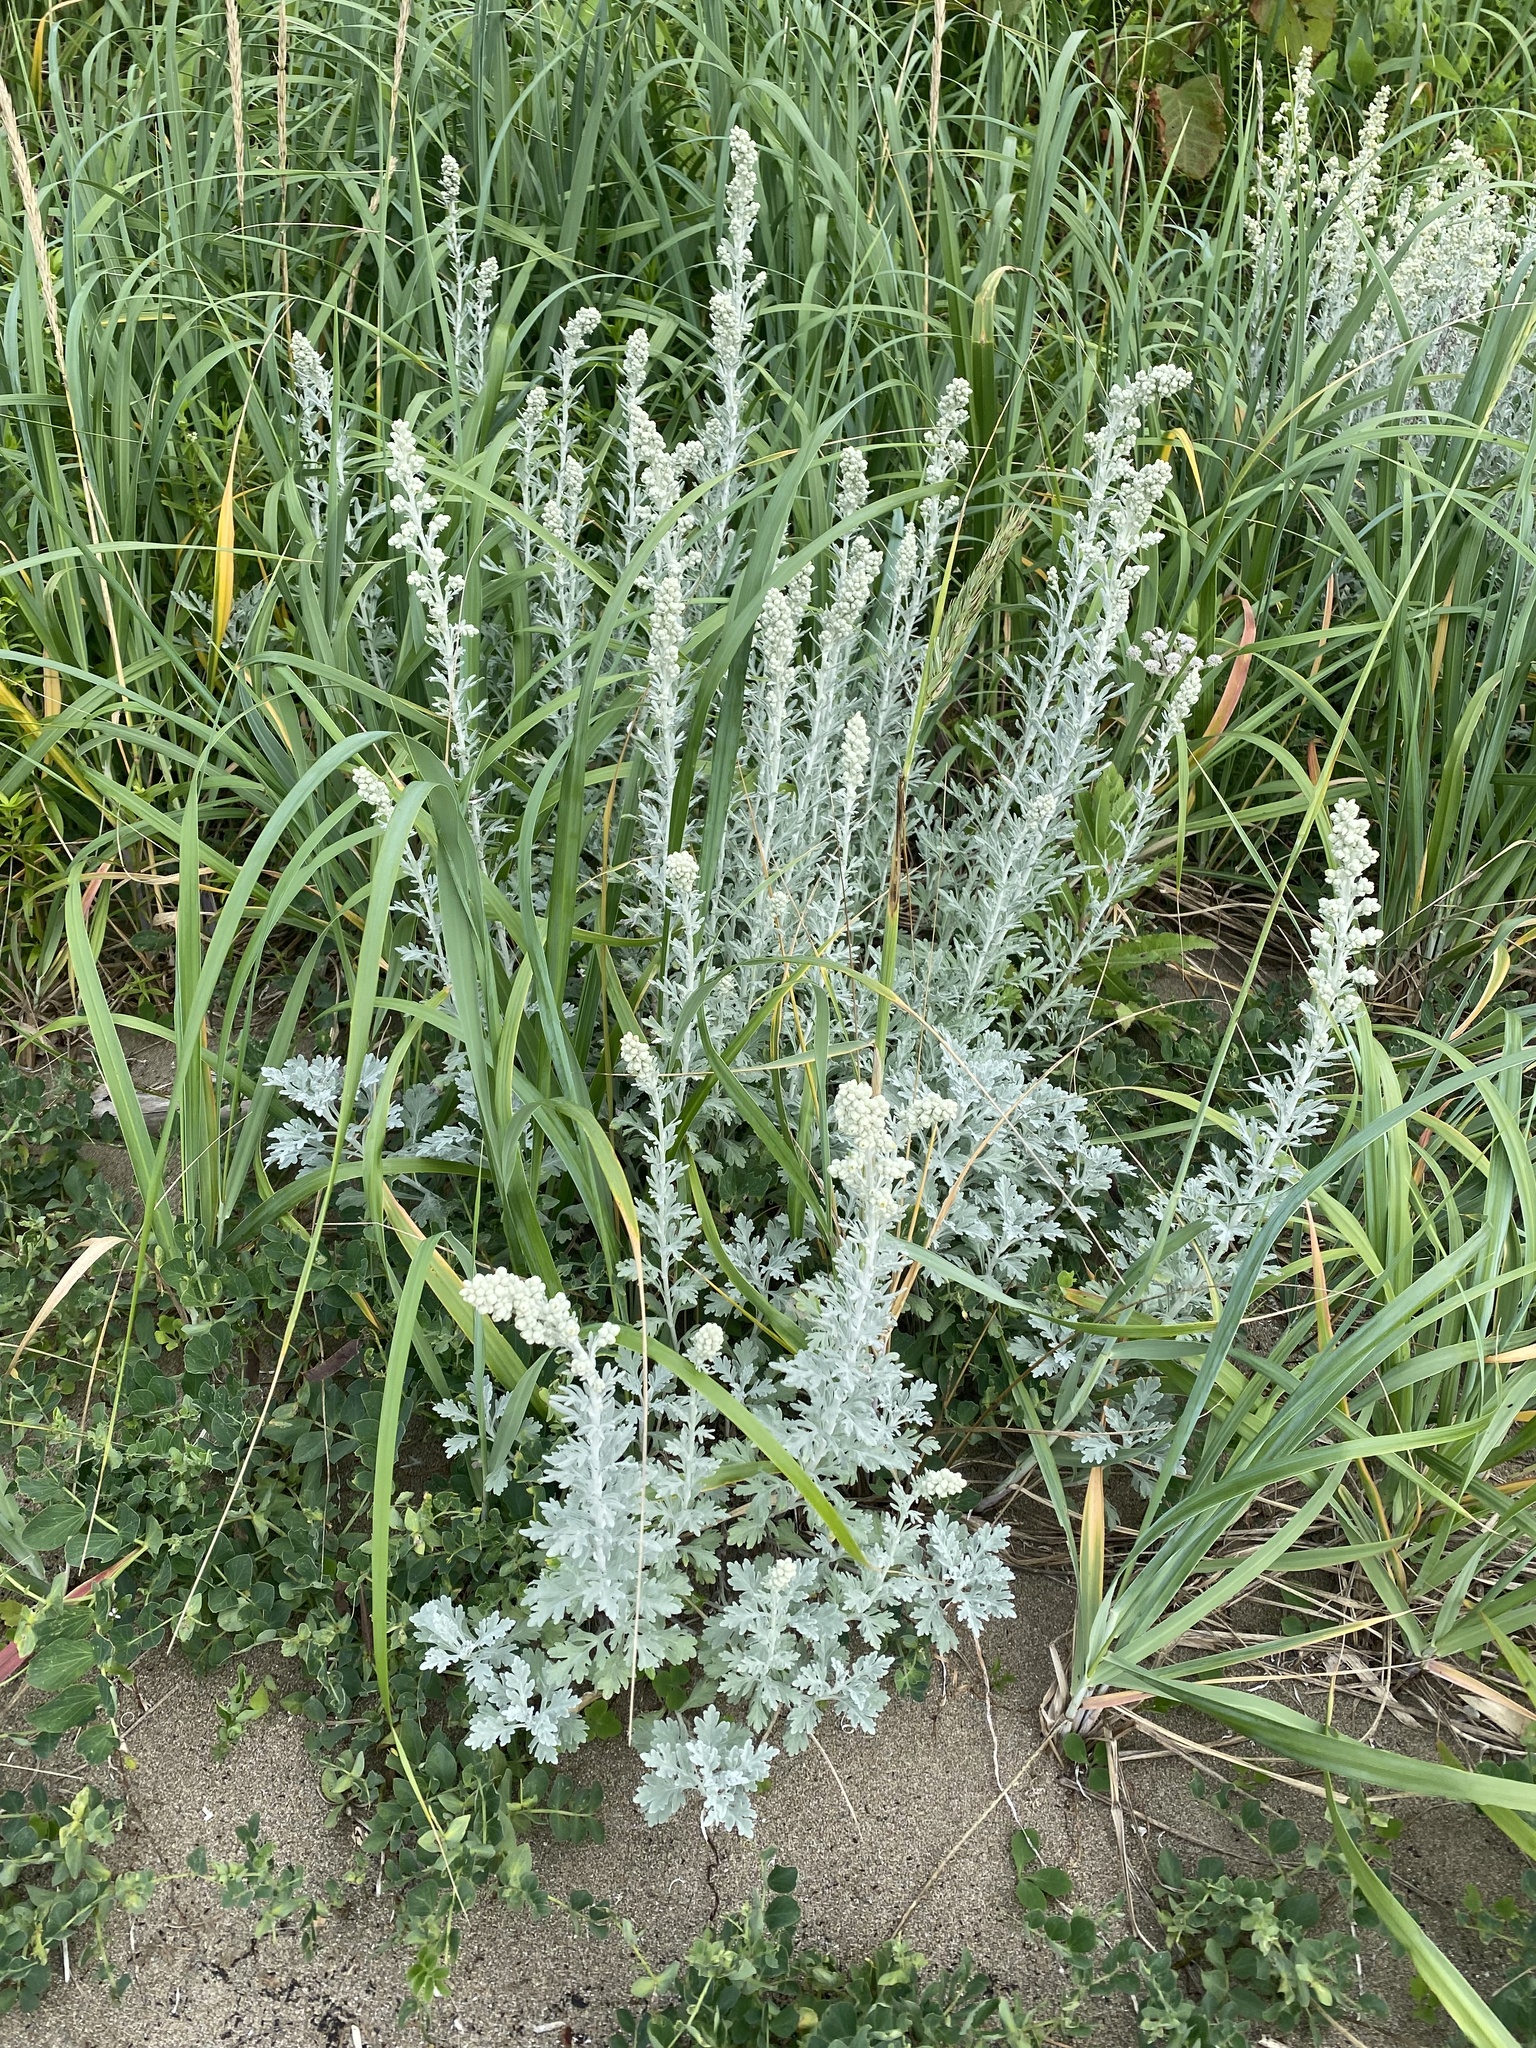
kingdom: Plantae
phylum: Tracheophyta
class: Magnoliopsida
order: Asterales
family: Asteraceae
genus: Artemisia
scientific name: Artemisia stelleriana
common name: Beach wormwood
